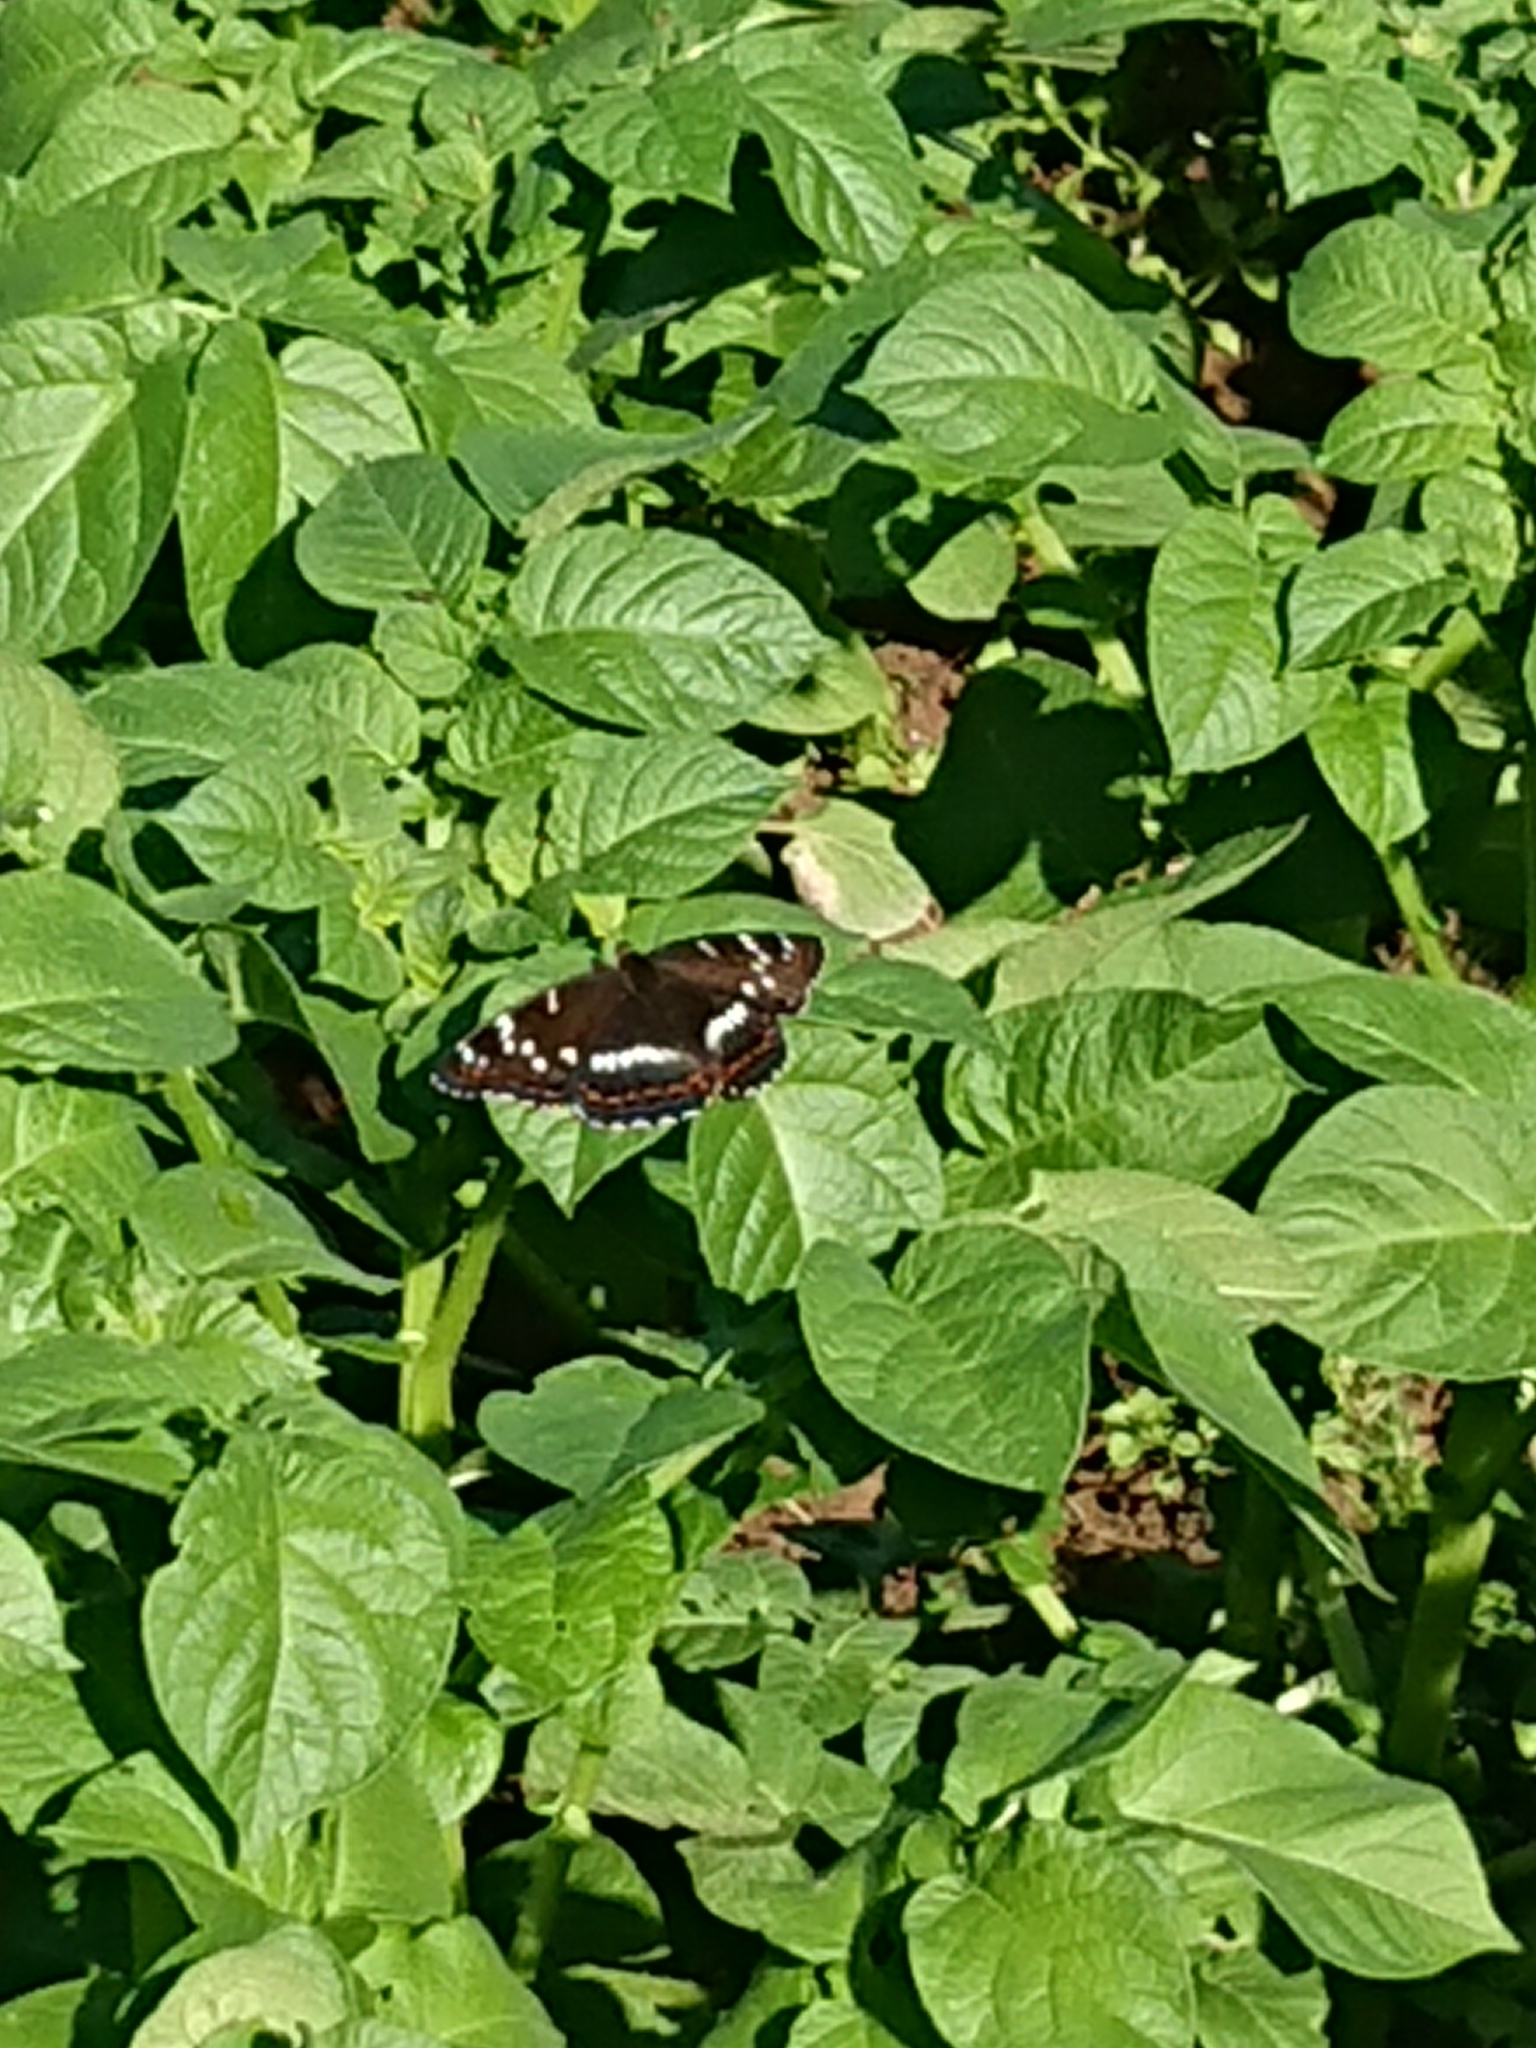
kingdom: Animalia
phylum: Arthropoda
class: Insecta
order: Lepidoptera
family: Nymphalidae
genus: Limenitis
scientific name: Limenitis populi
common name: Poplar admiral
